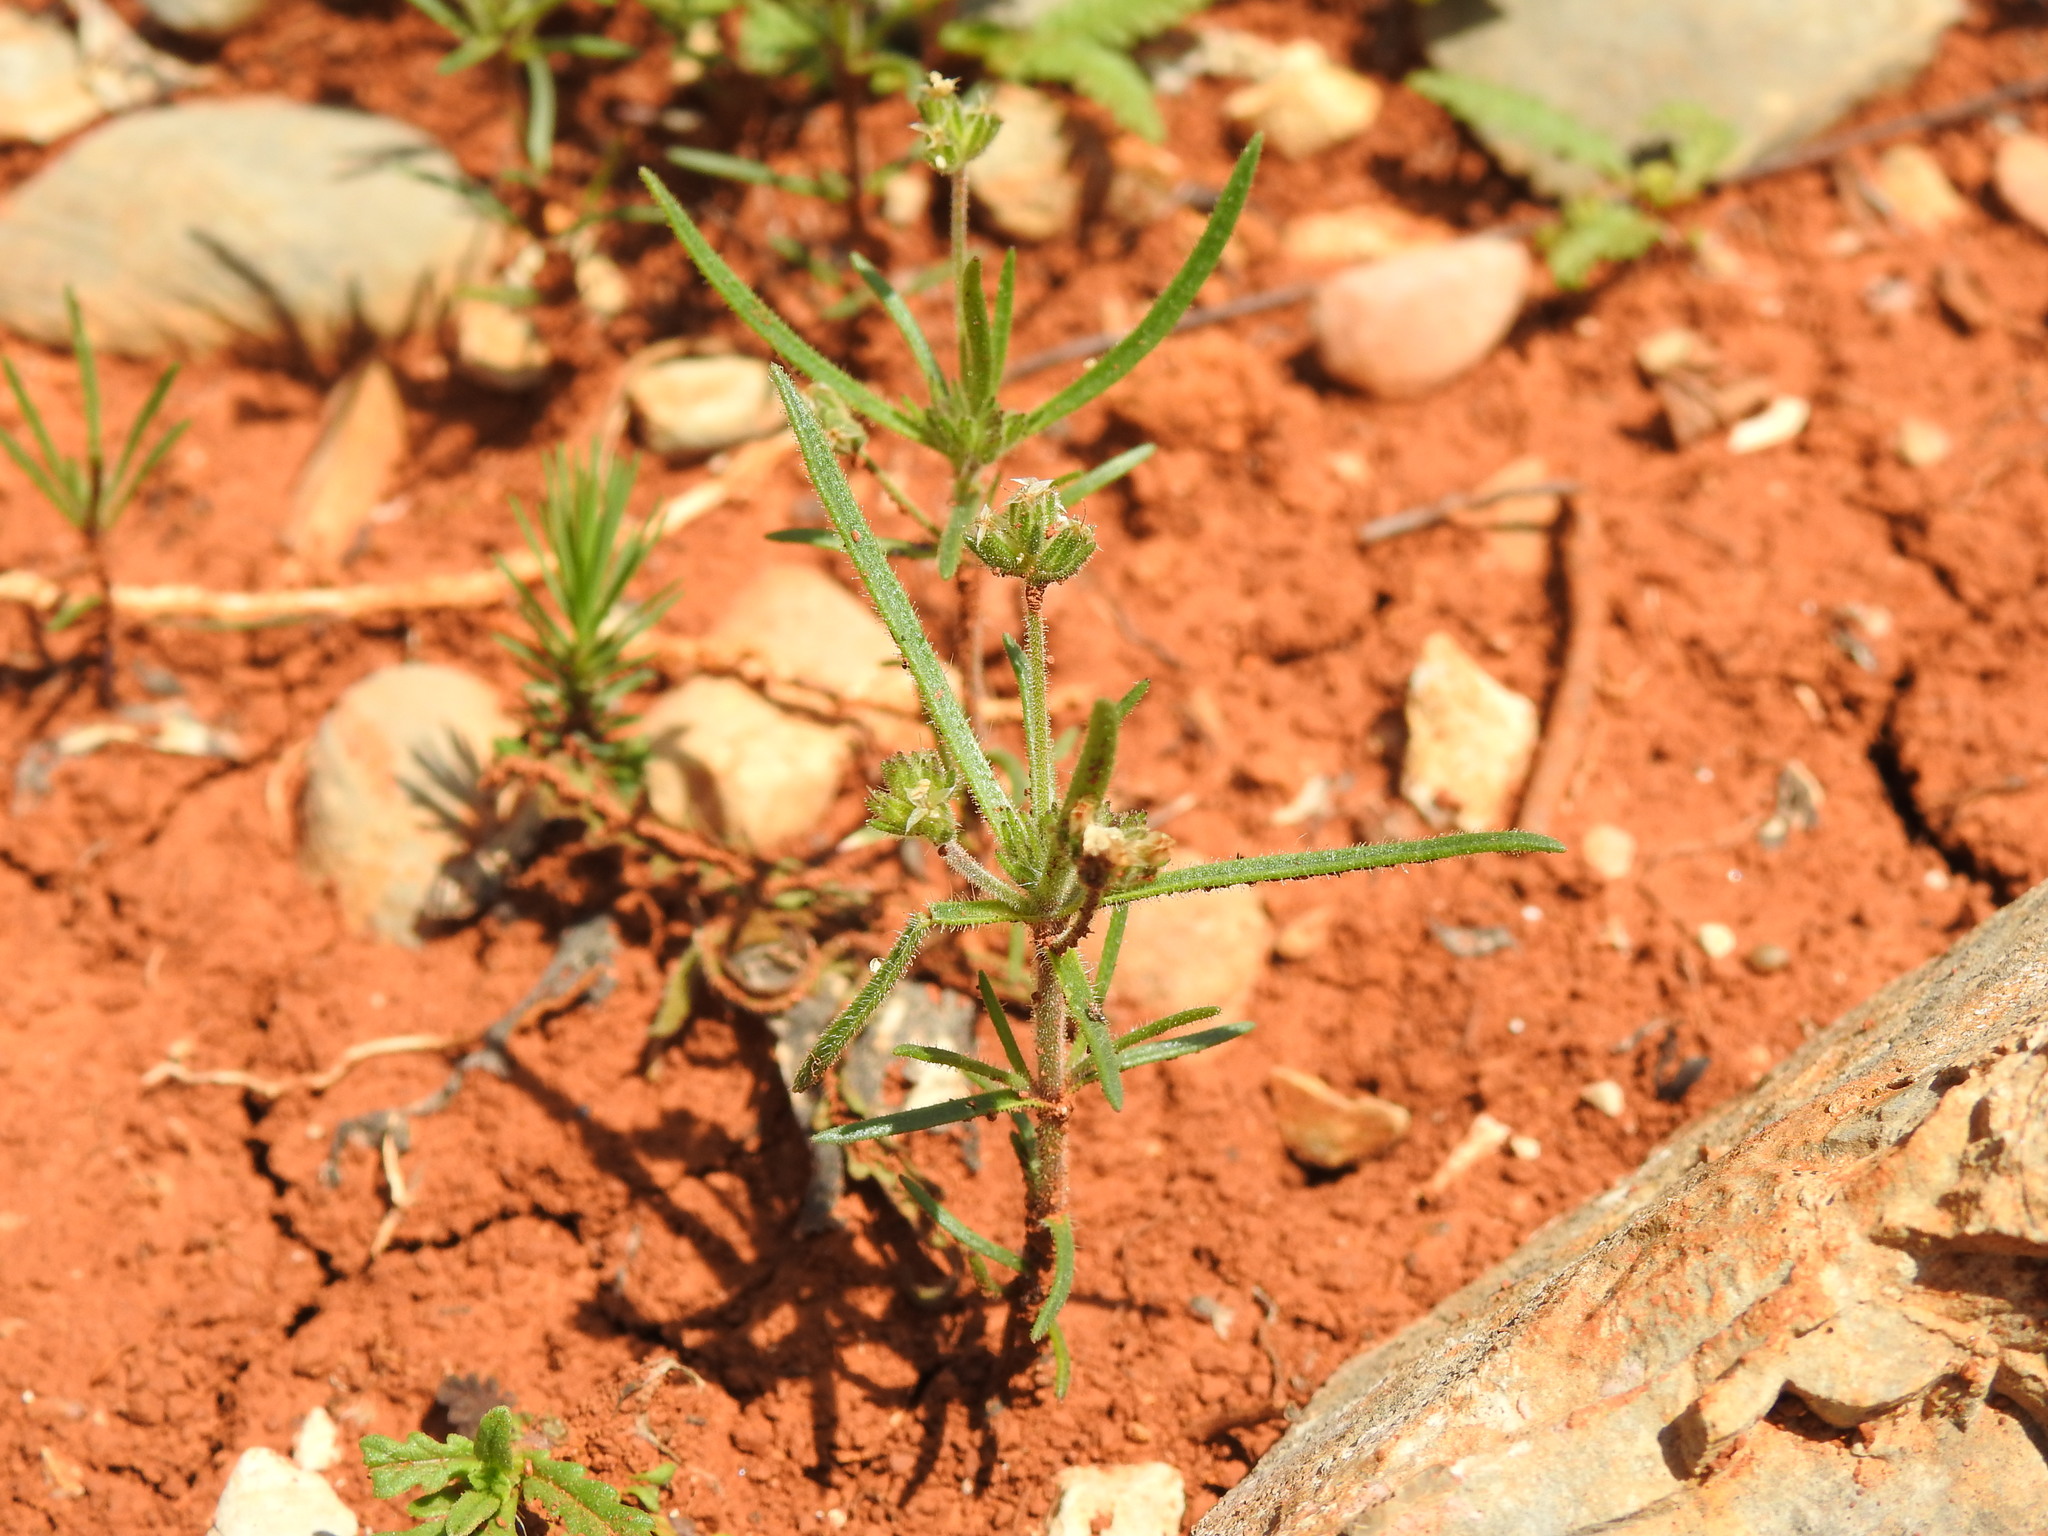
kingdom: Plantae
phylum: Tracheophyta
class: Magnoliopsida
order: Lamiales
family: Plantaginaceae
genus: Plantago
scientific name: Plantago afra
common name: Glandular plantain
